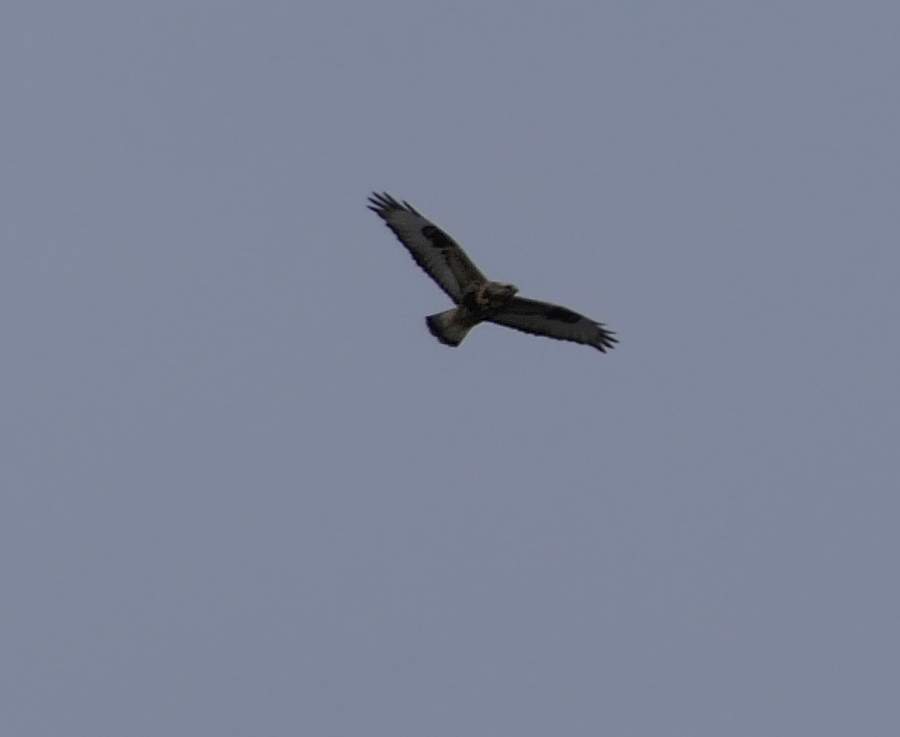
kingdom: Animalia
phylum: Chordata
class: Aves
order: Accipitriformes
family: Accipitridae
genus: Buteo
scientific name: Buteo lagopus
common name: Rough-legged buzzard
